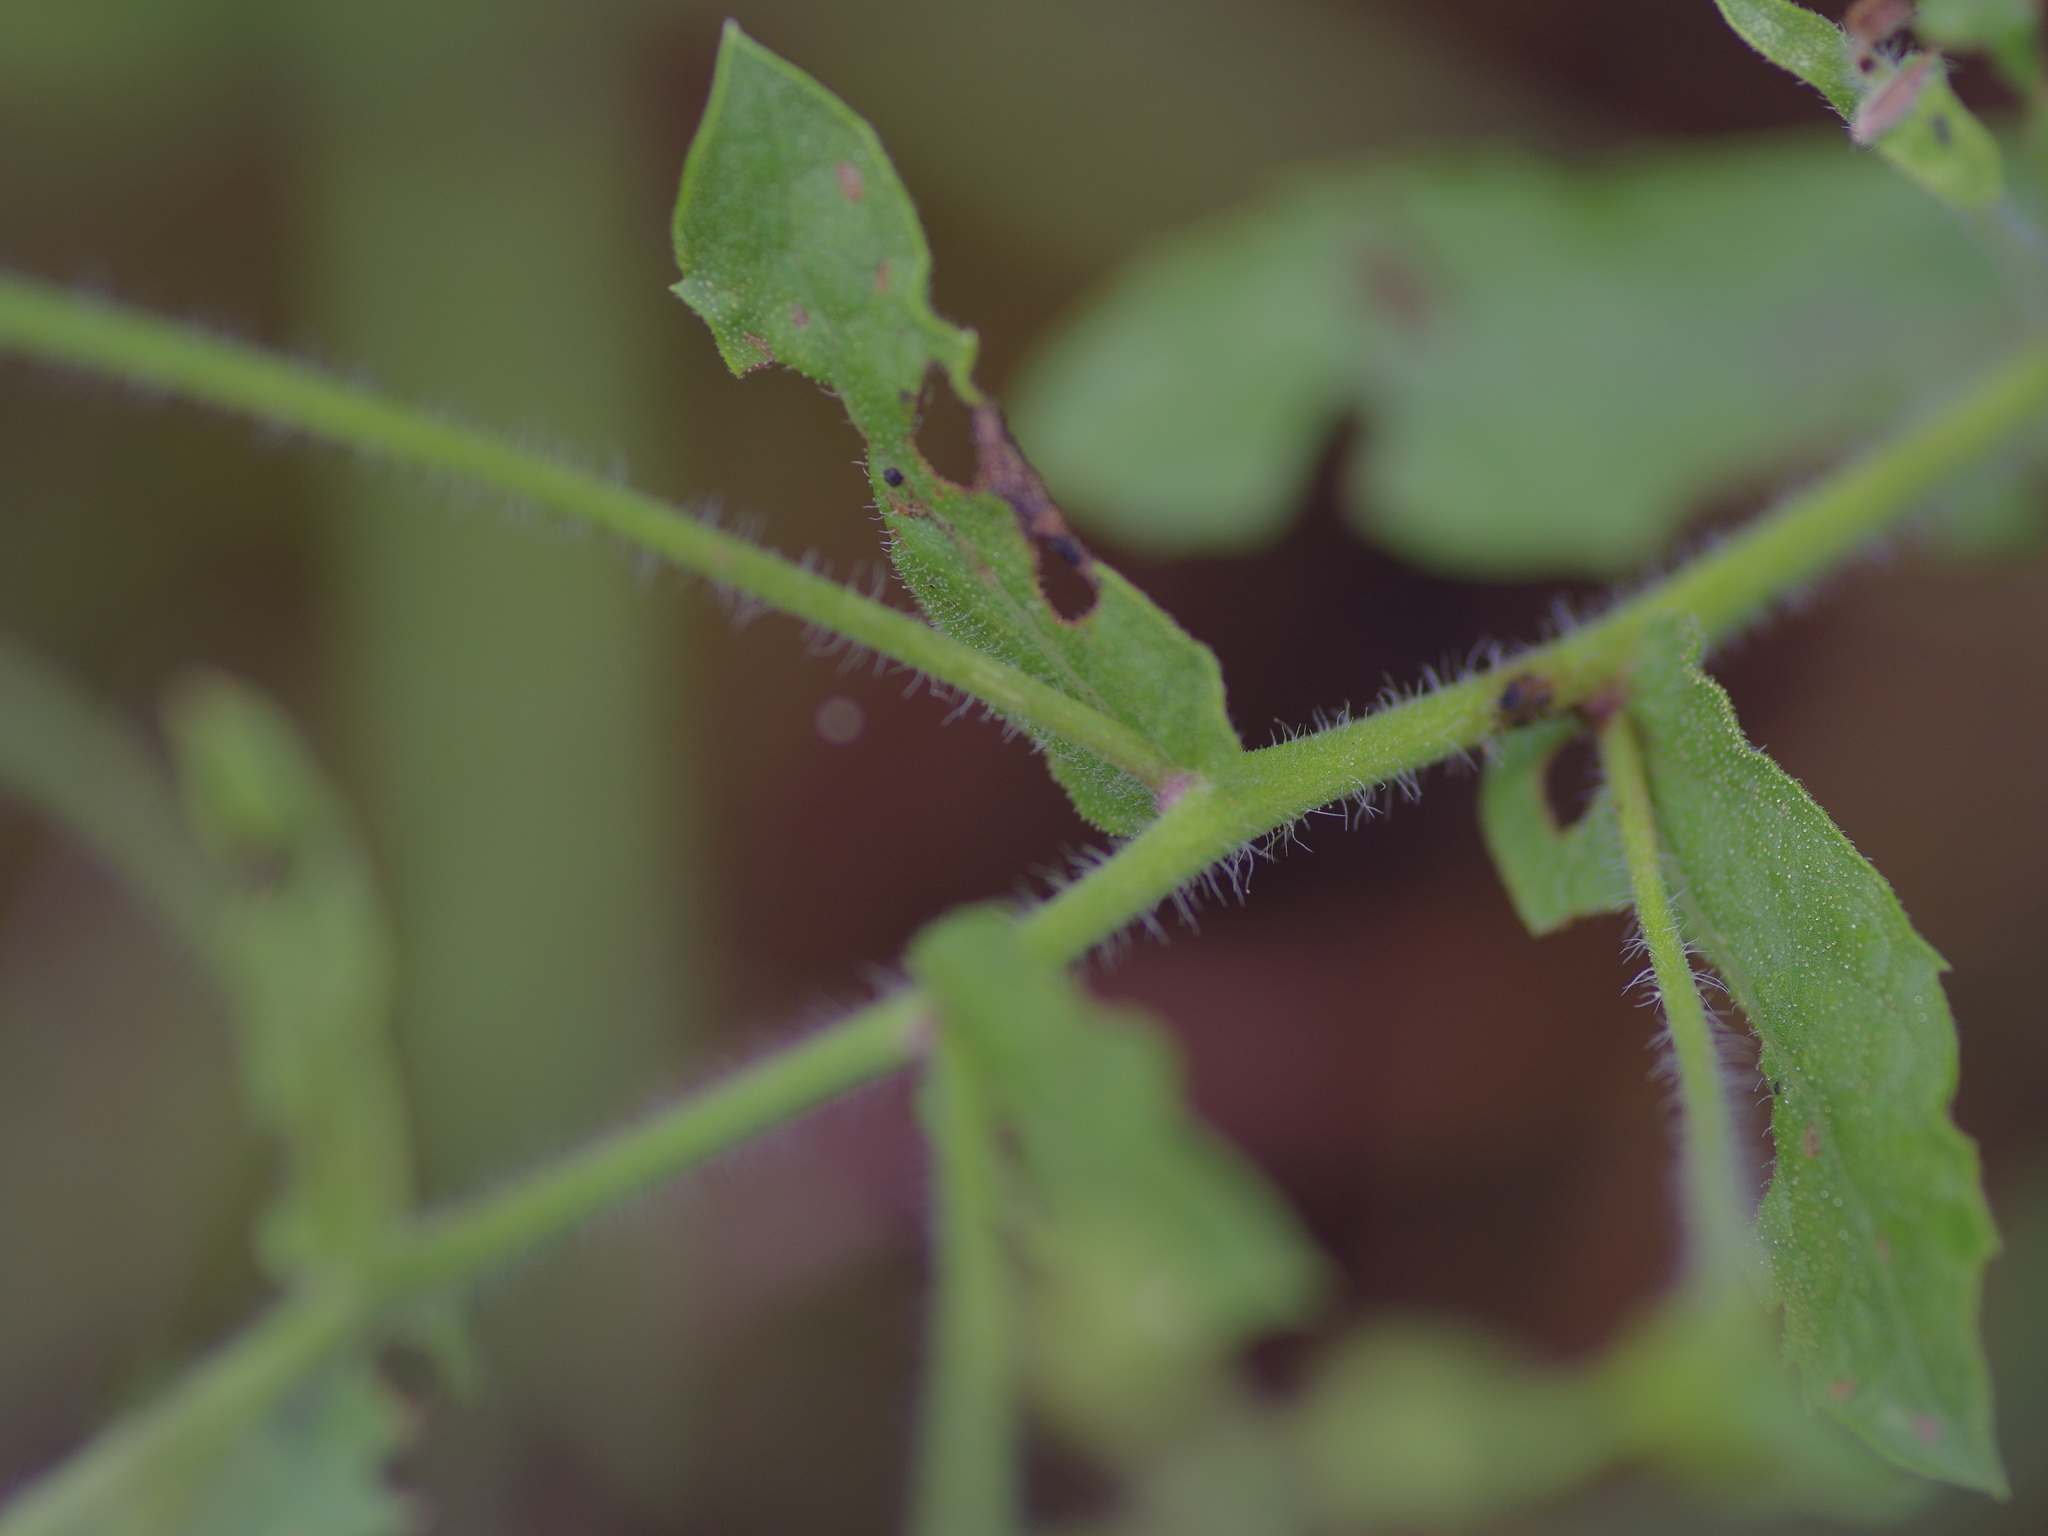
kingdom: Plantae
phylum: Tracheophyta
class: Magnoliopsida
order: Asterales
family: Asteraceae
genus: Heterotheca
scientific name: Heterotheca subaxillaris
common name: Camphorweed
